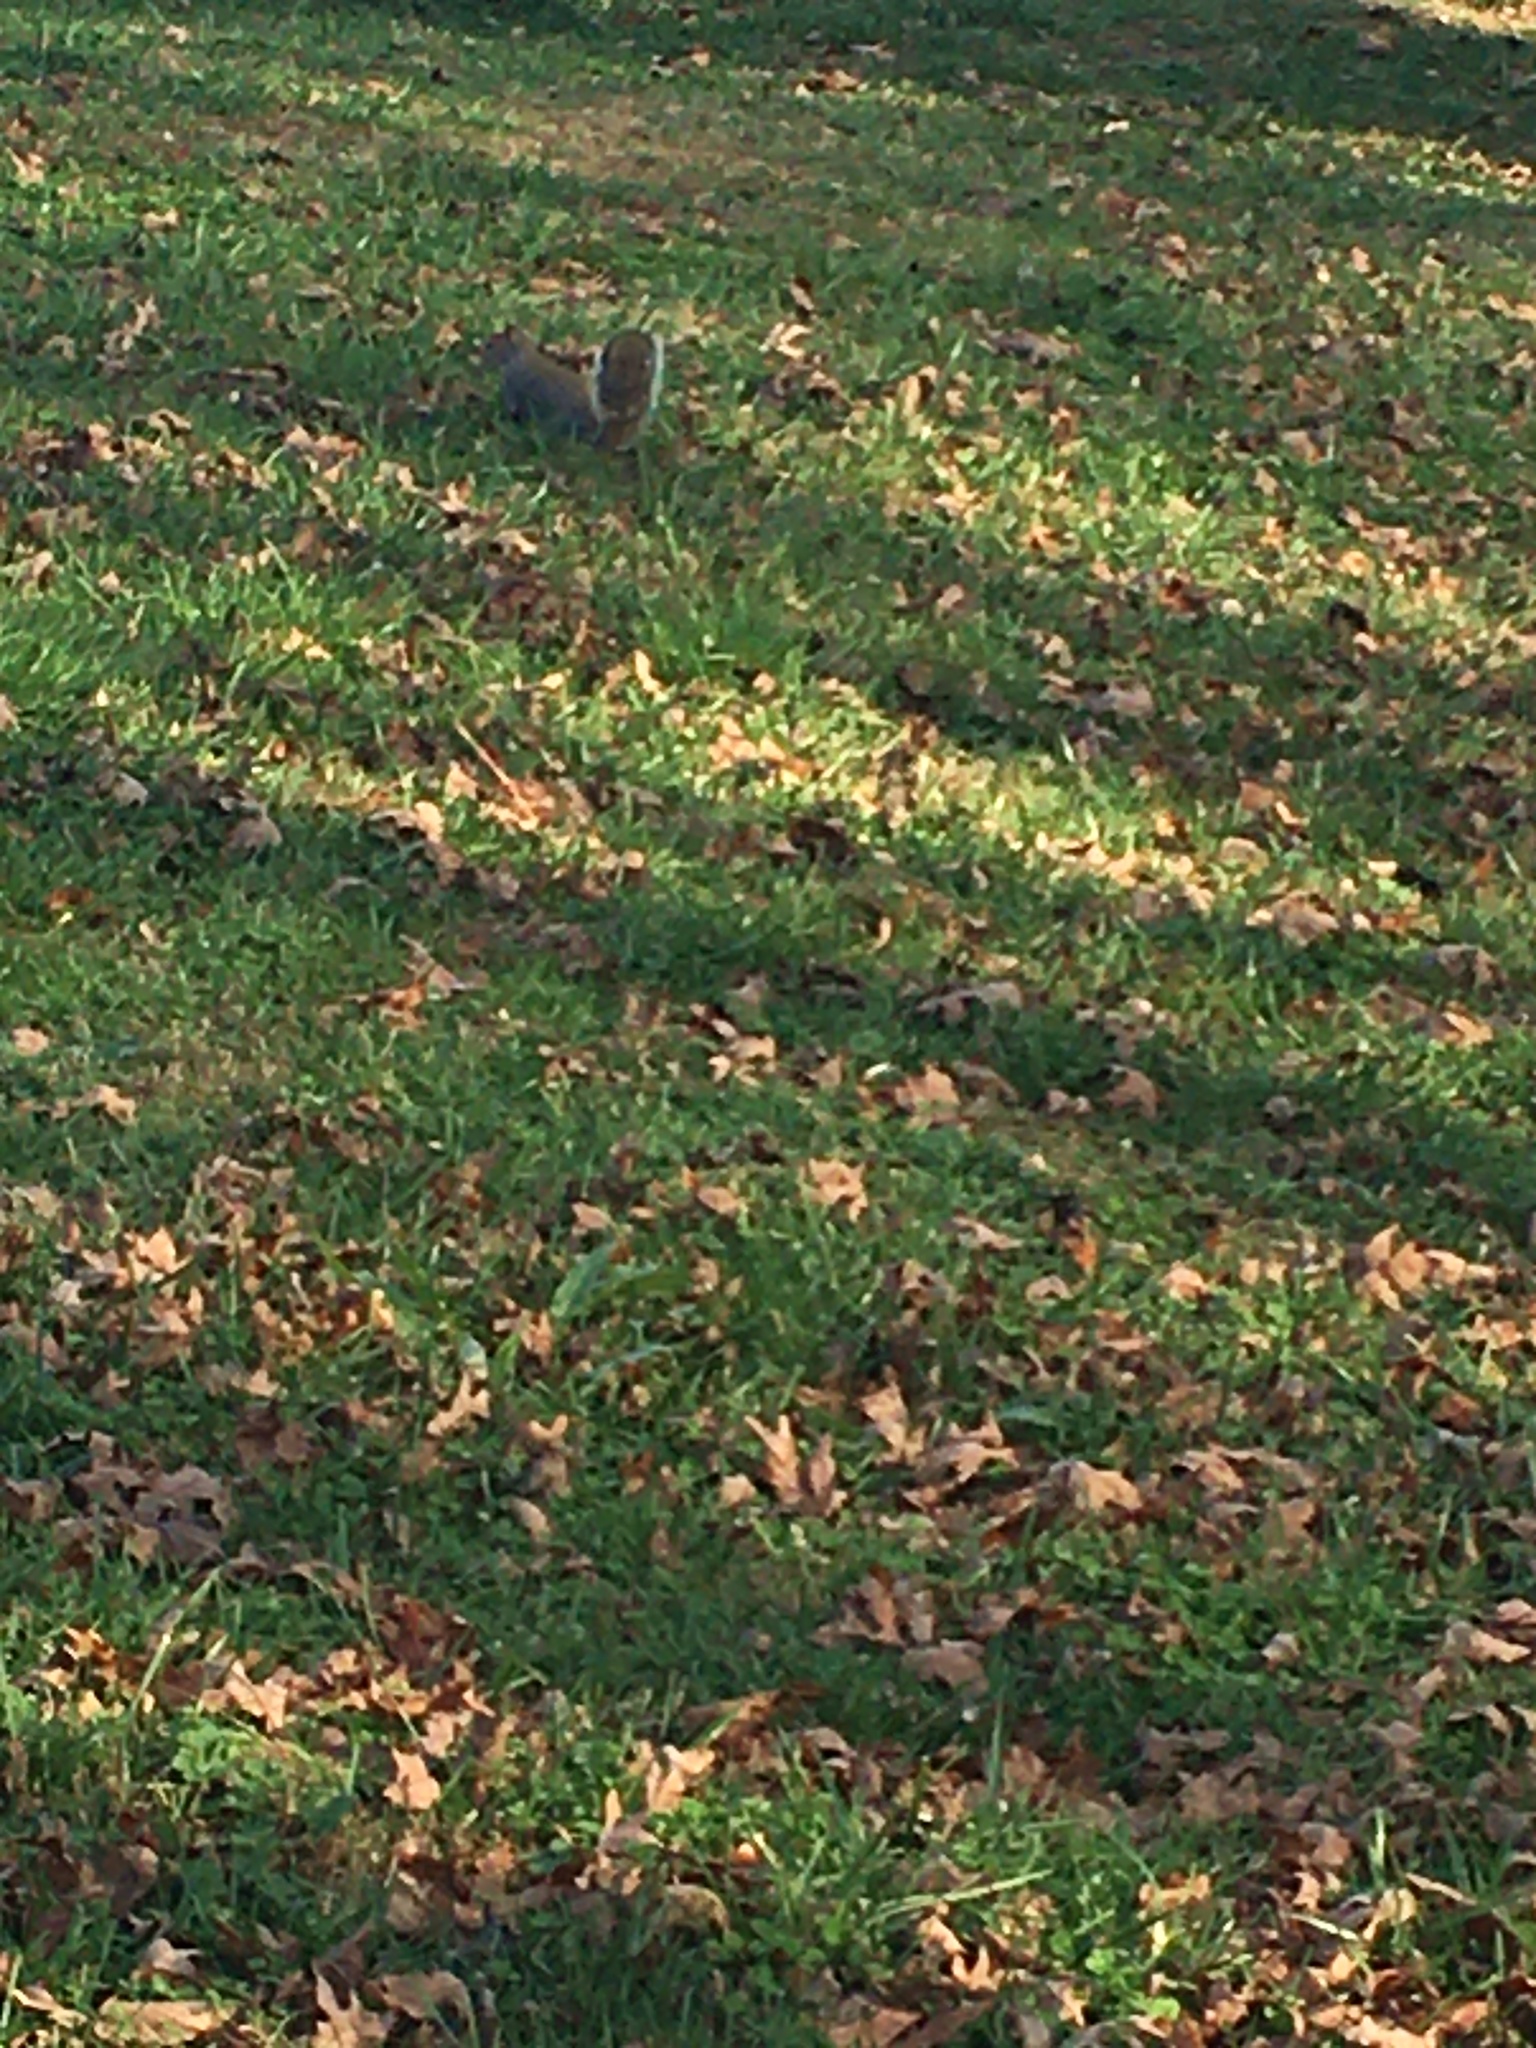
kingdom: Animalia
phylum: Chordata
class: Mammalia
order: Rodentia
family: Sciuridae
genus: Sciurus
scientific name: Sciurus carolinensis
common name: Eastern gray squirrel
